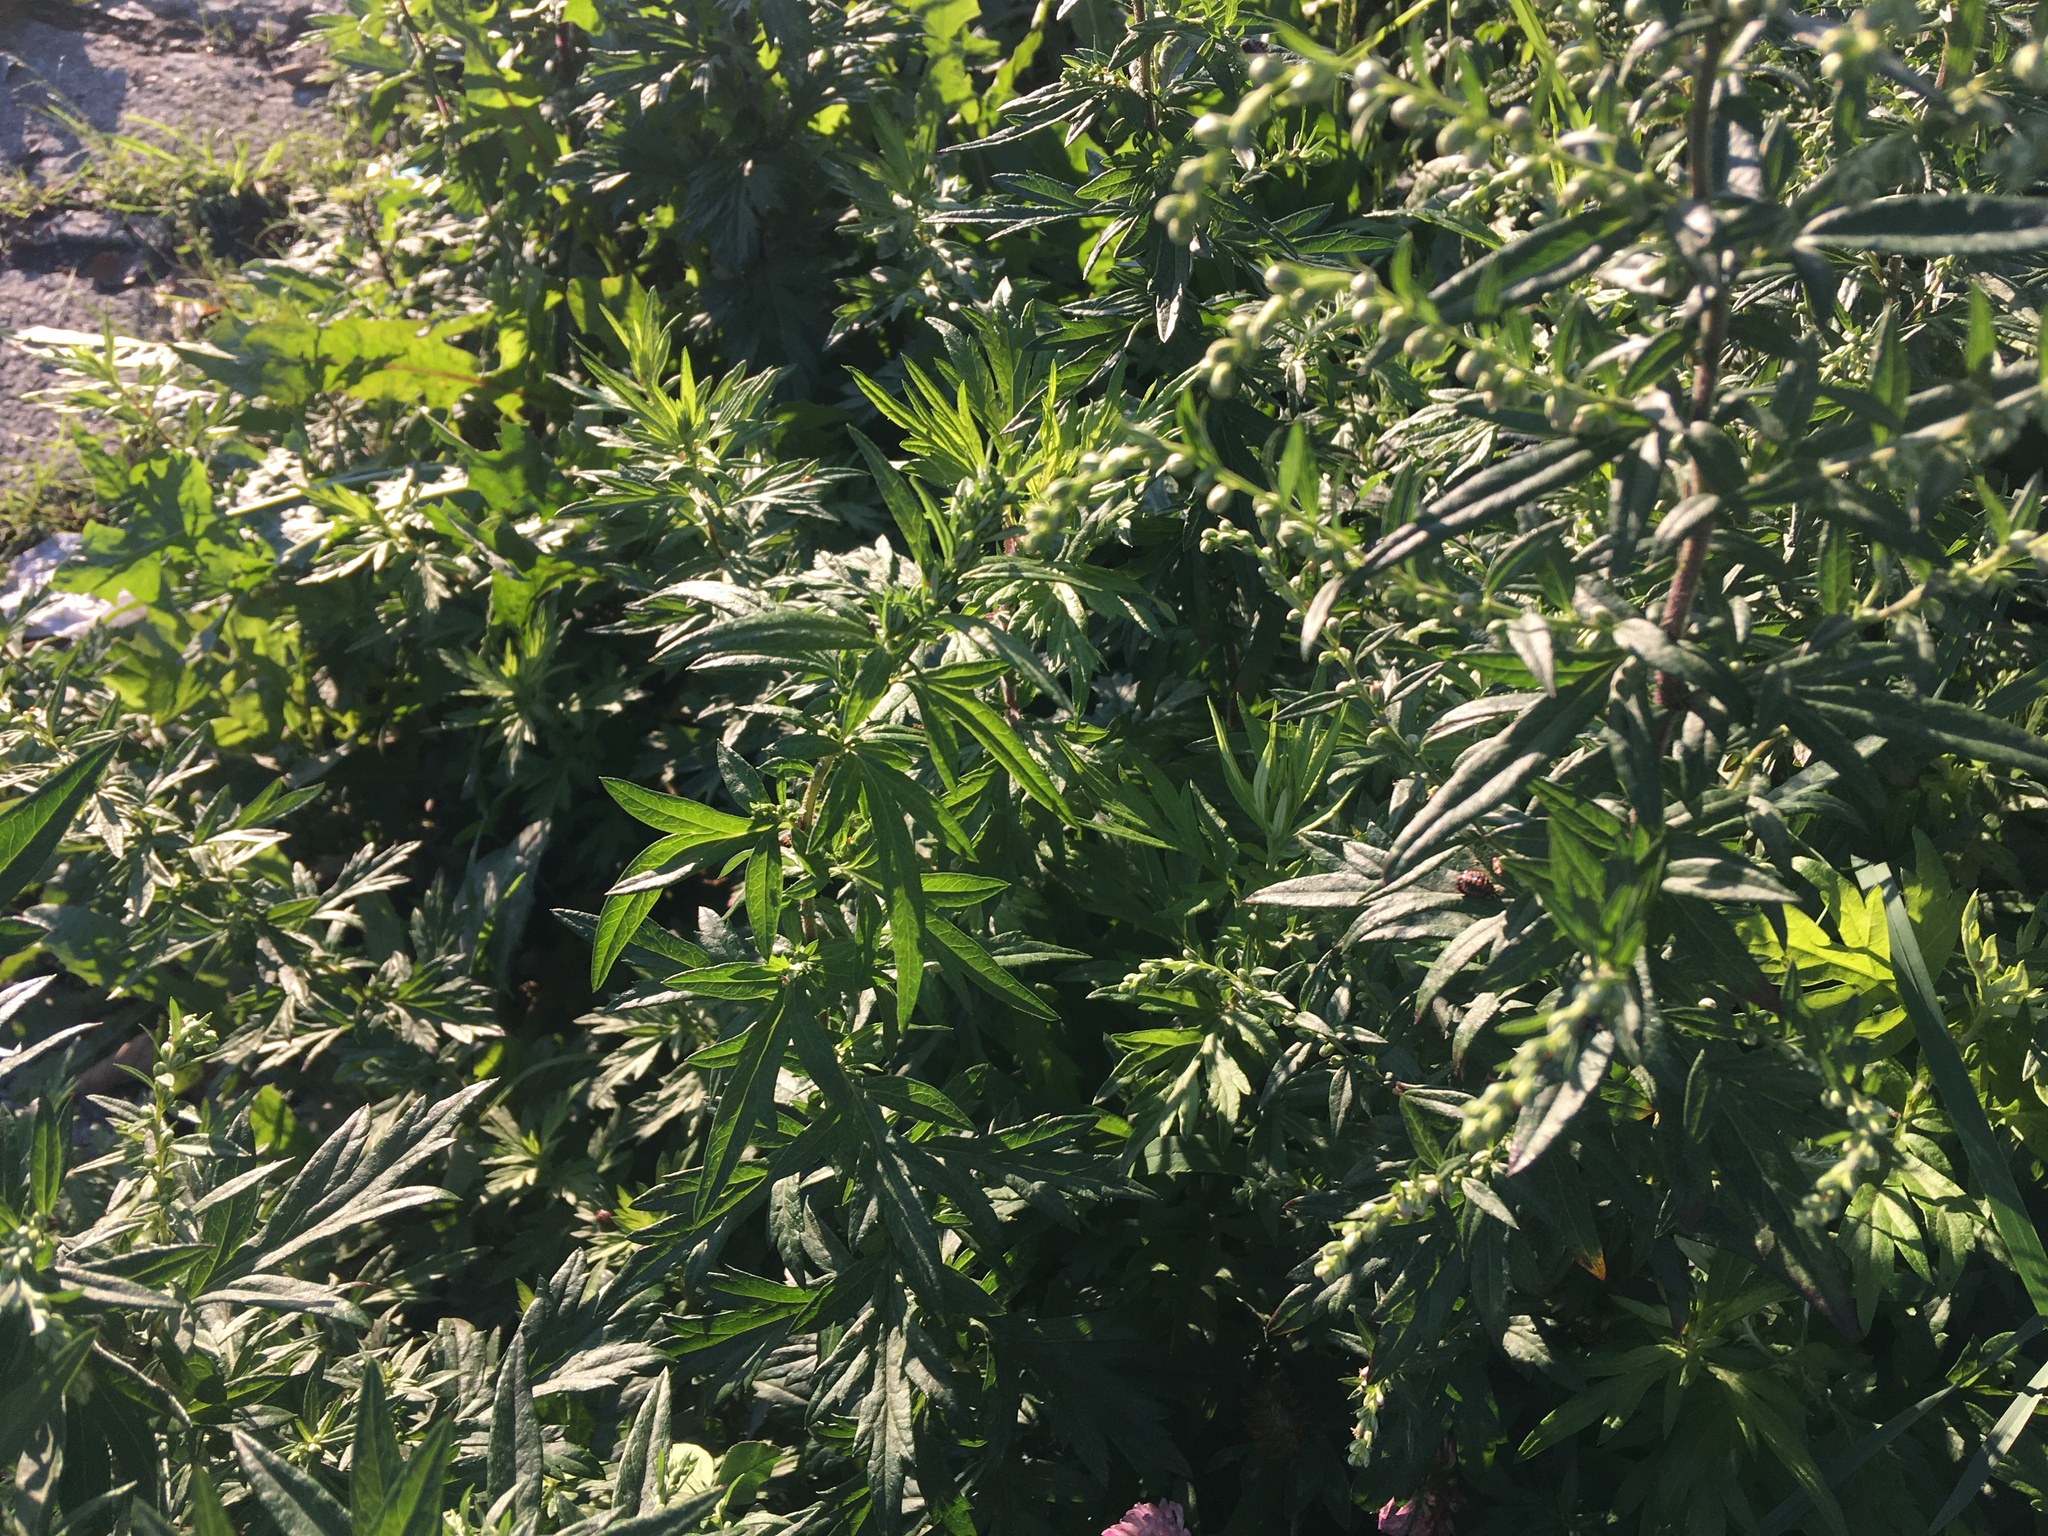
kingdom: Plantae
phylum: Tracheophyta
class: Magnoliopsida
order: Asterales
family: Asteraceae
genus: Artemisia
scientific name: Artemisia vulgaris
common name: Mugwort
